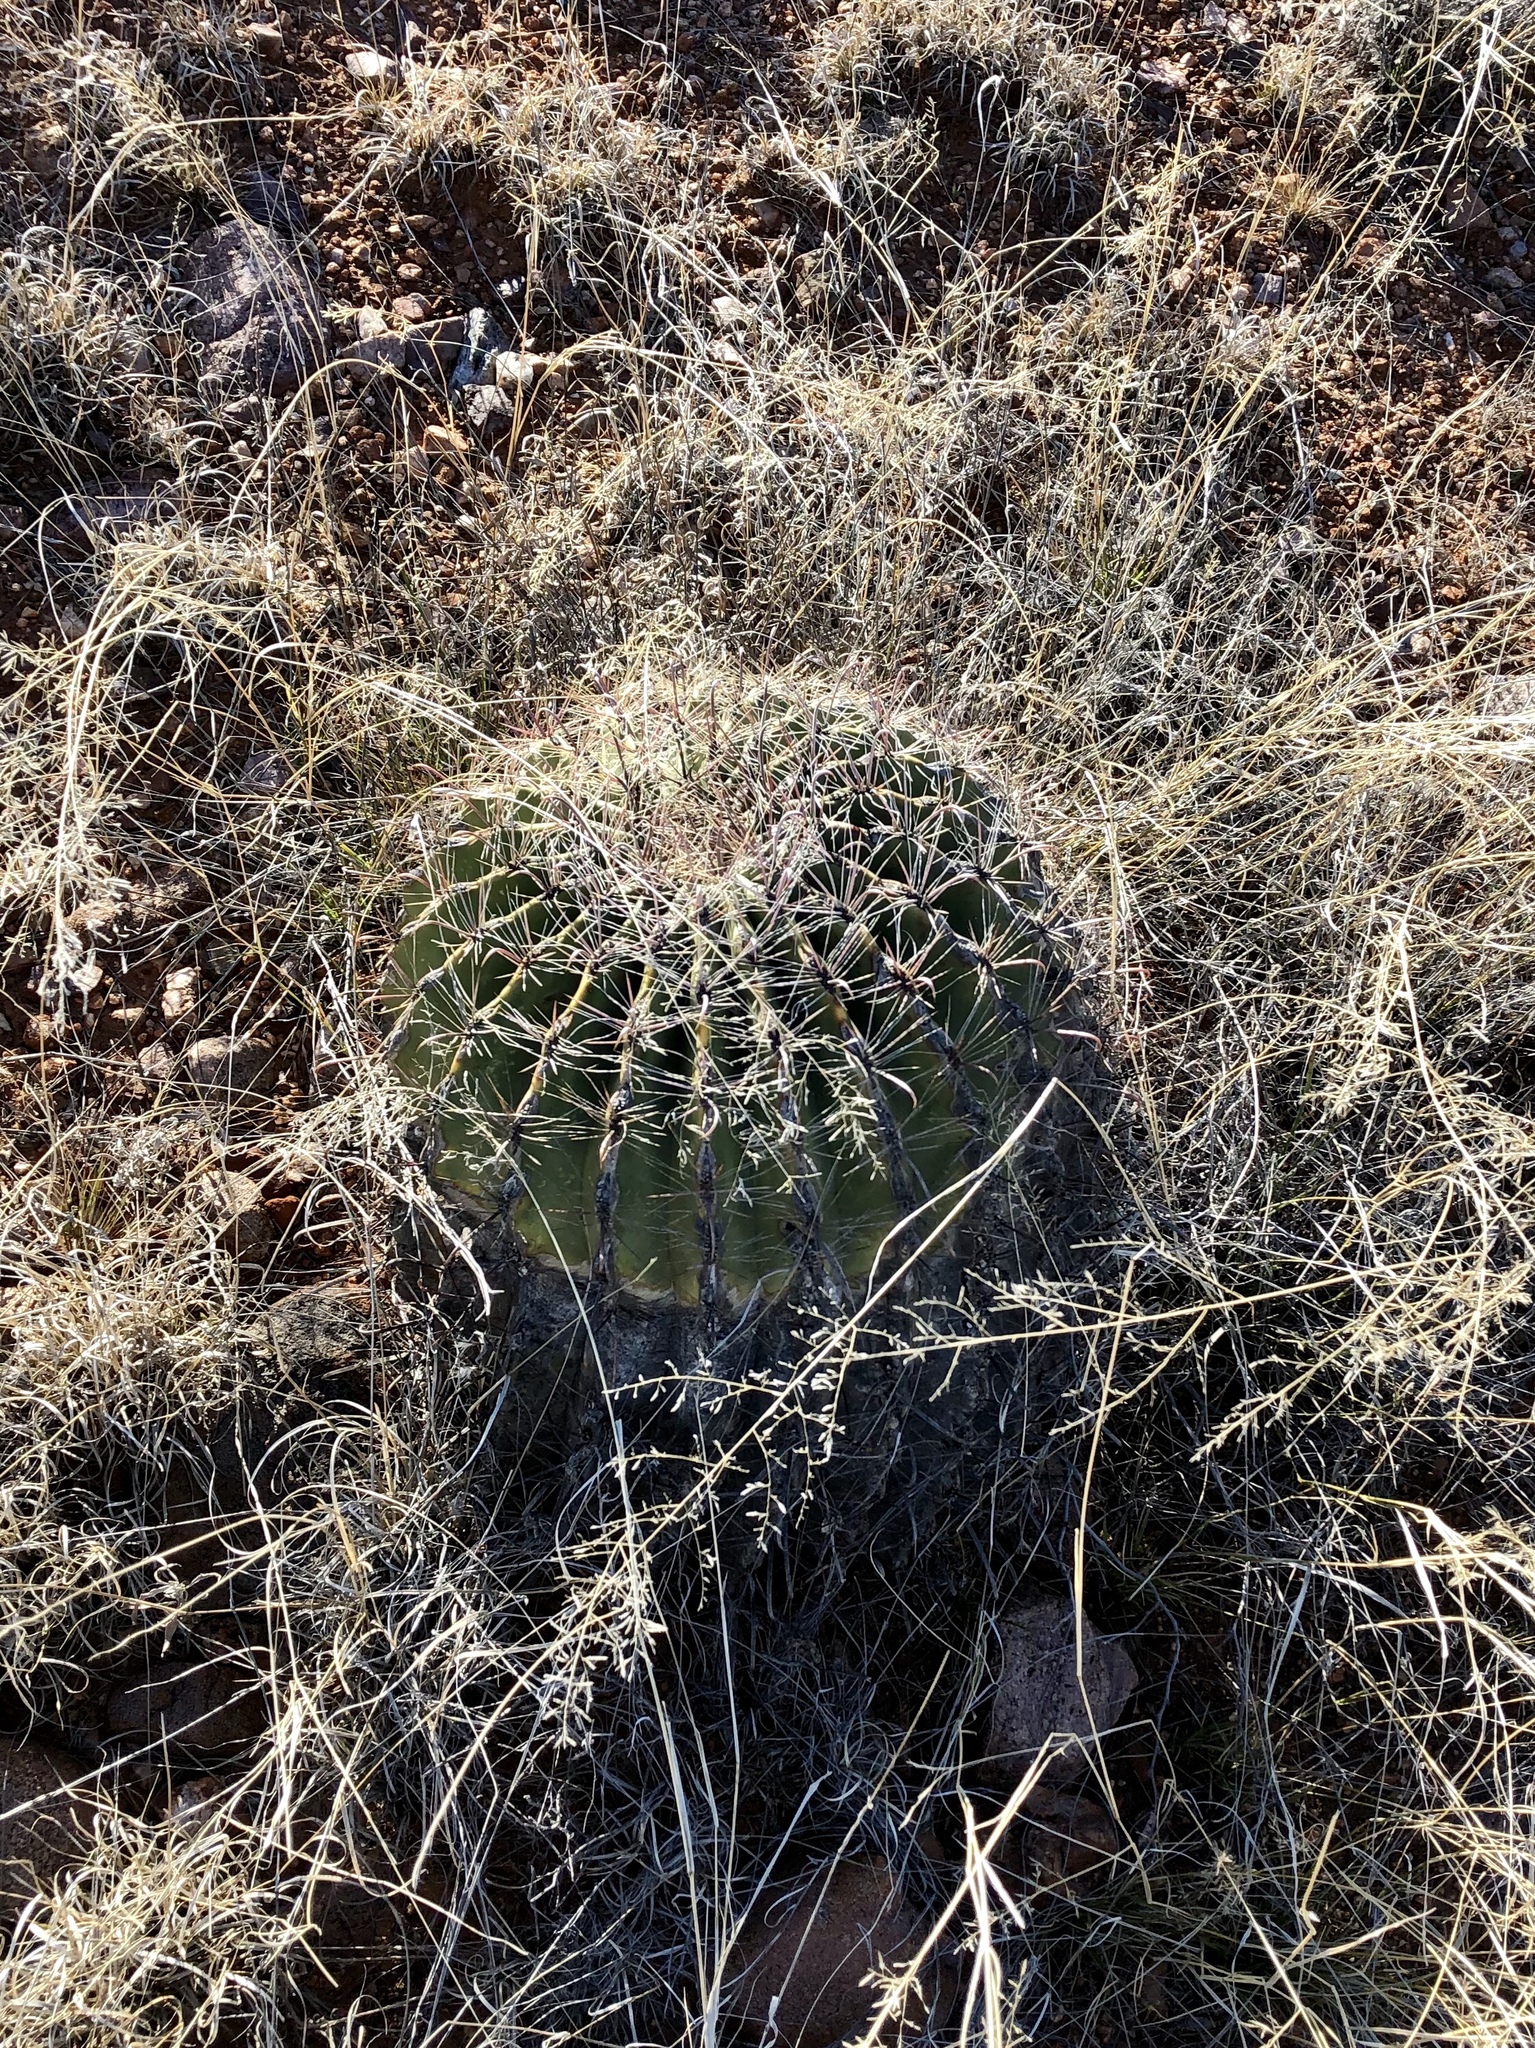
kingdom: Plantae
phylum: Tracheophyta
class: Magnoliopsida
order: Caryophyllales
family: Cactaceae
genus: Ferocactus
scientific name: Ferocactus wislizeni
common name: Candy barrel cactus
